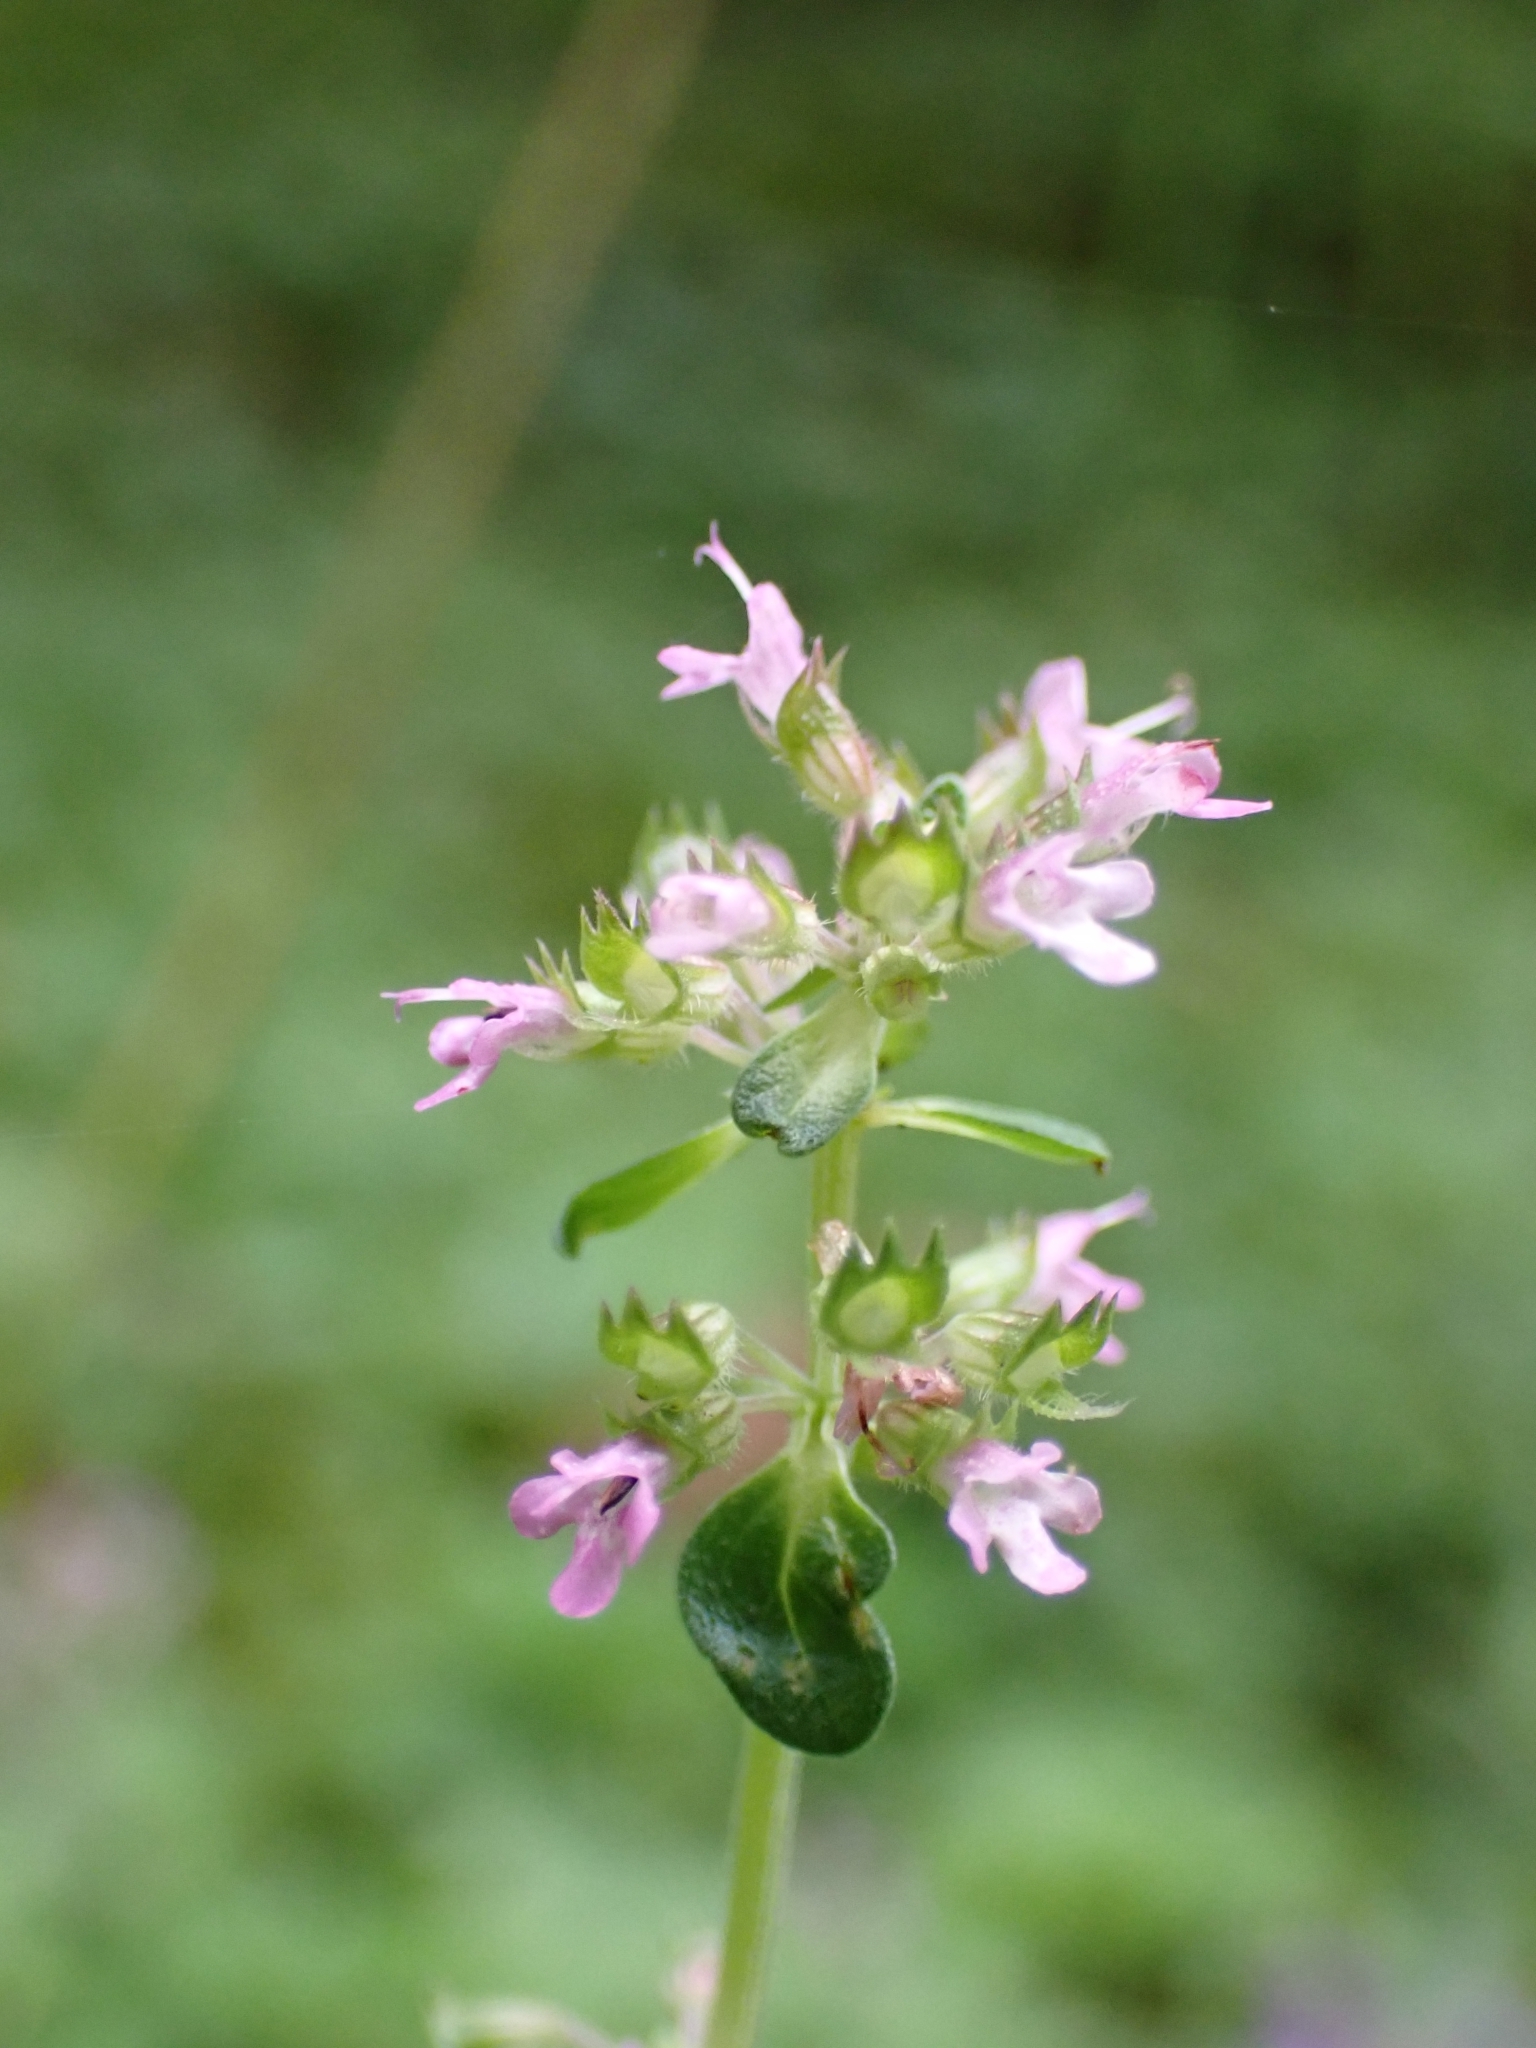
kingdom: Plantae
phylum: Tracheophyta
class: Magnoliopsida
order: Lamiales
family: Lamiaceae
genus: Thymus
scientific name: Thymus pulegioides
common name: Large thyme
